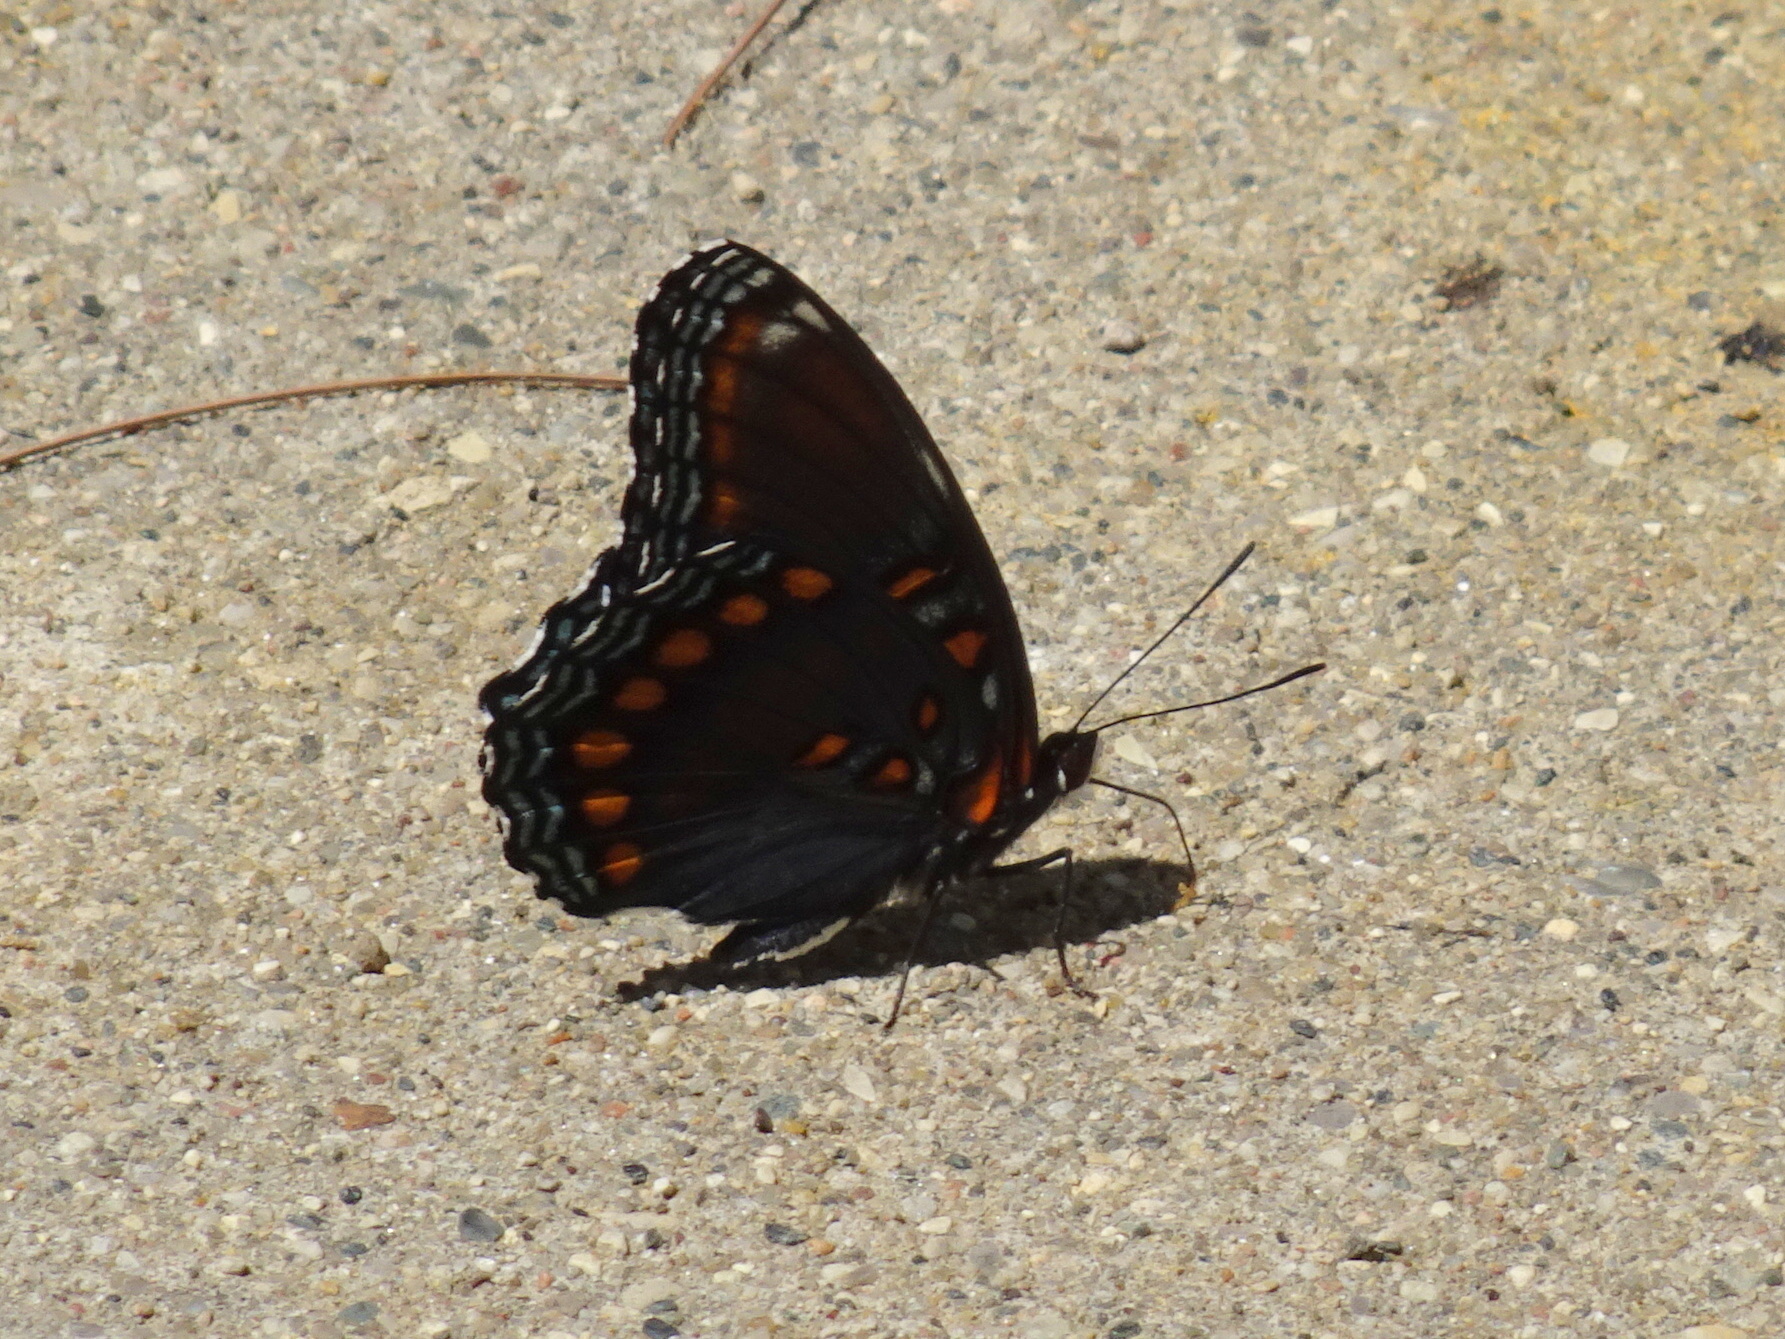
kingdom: Animalia
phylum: Arthropoda
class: Insecta
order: Lepidoptera
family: Nymphalidae
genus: Limenitis
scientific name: Limenitis arthemis
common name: Red-spotted admiral
